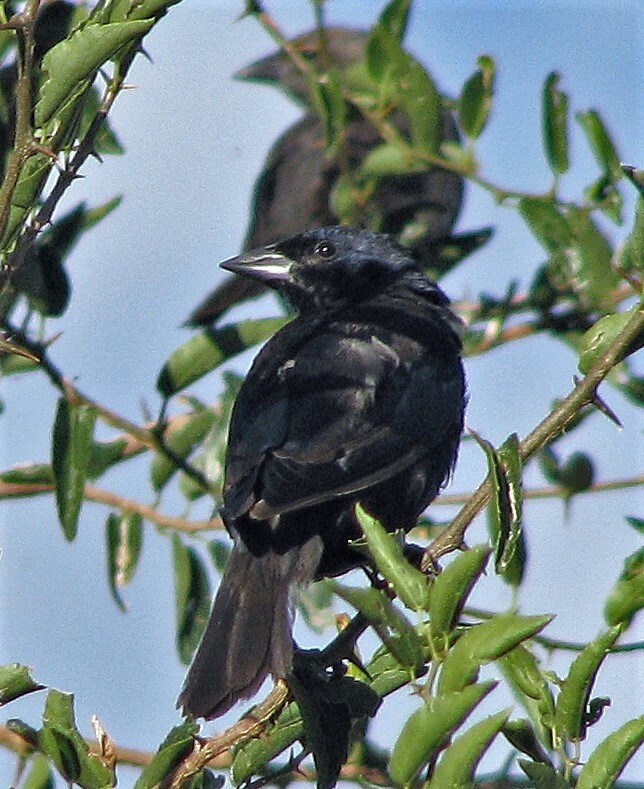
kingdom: Animalia
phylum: Chordata
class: Aves
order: Passeriformes
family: Icteridae
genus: Molothrus
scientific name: Molothrus bonariensis
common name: Shiny cowbird
